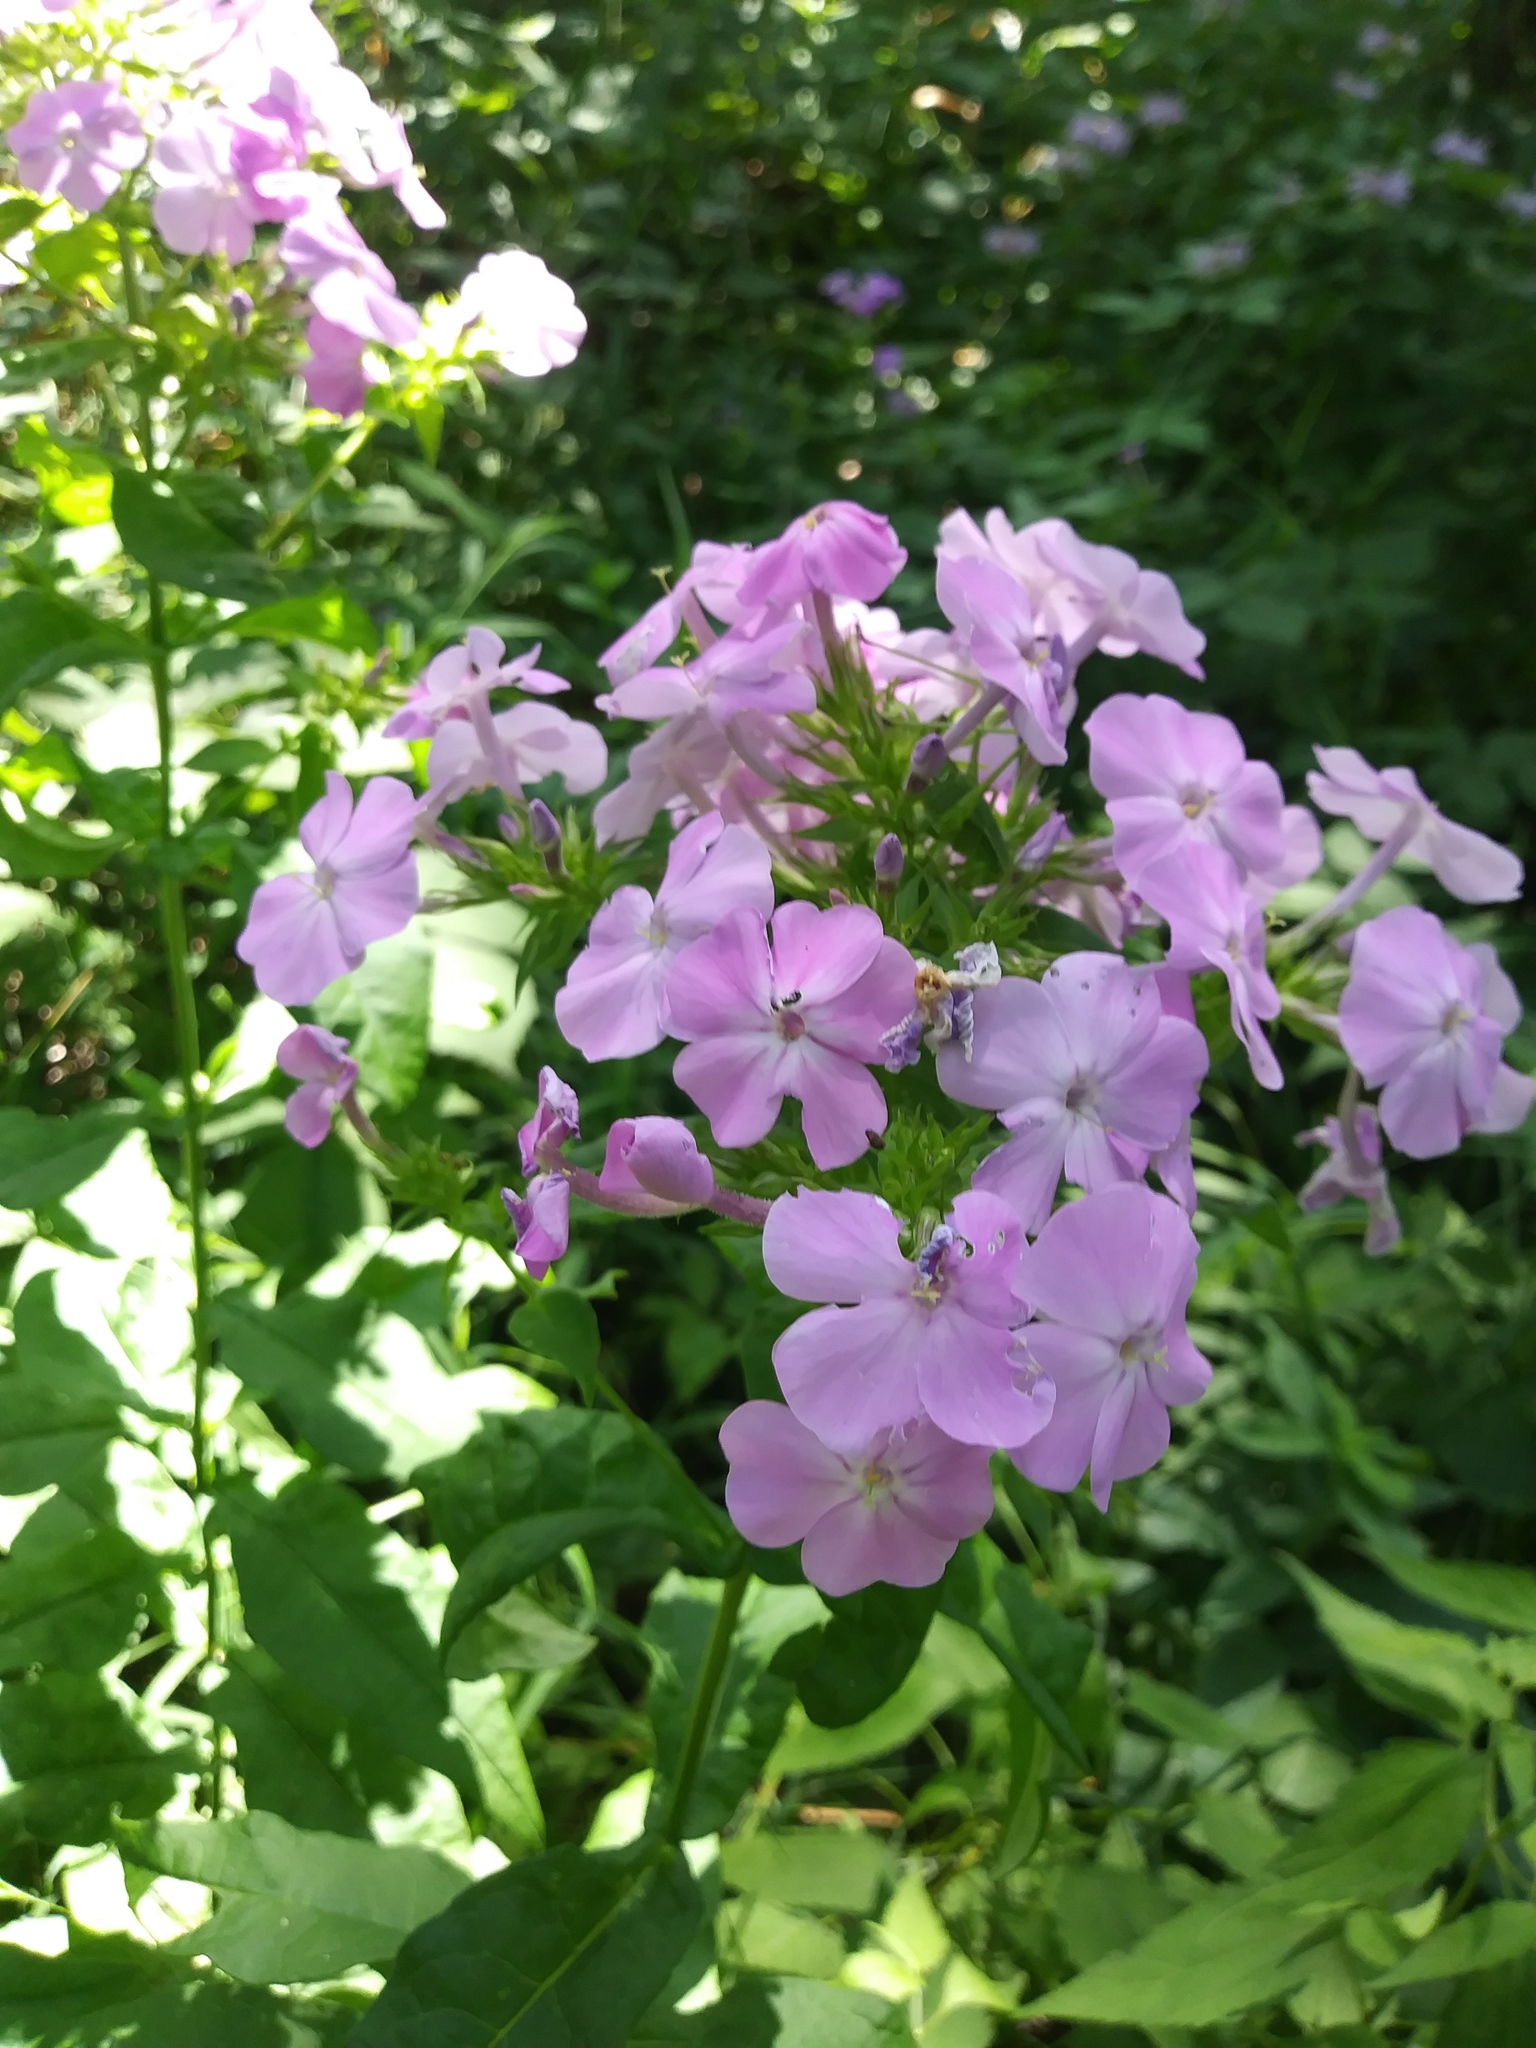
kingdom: Plantae
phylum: Tracheophyta
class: Magnoliopsida
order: Ericales
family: Polemoniaceae
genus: Phlox
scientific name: Phlox paniculata
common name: Fall phlox
